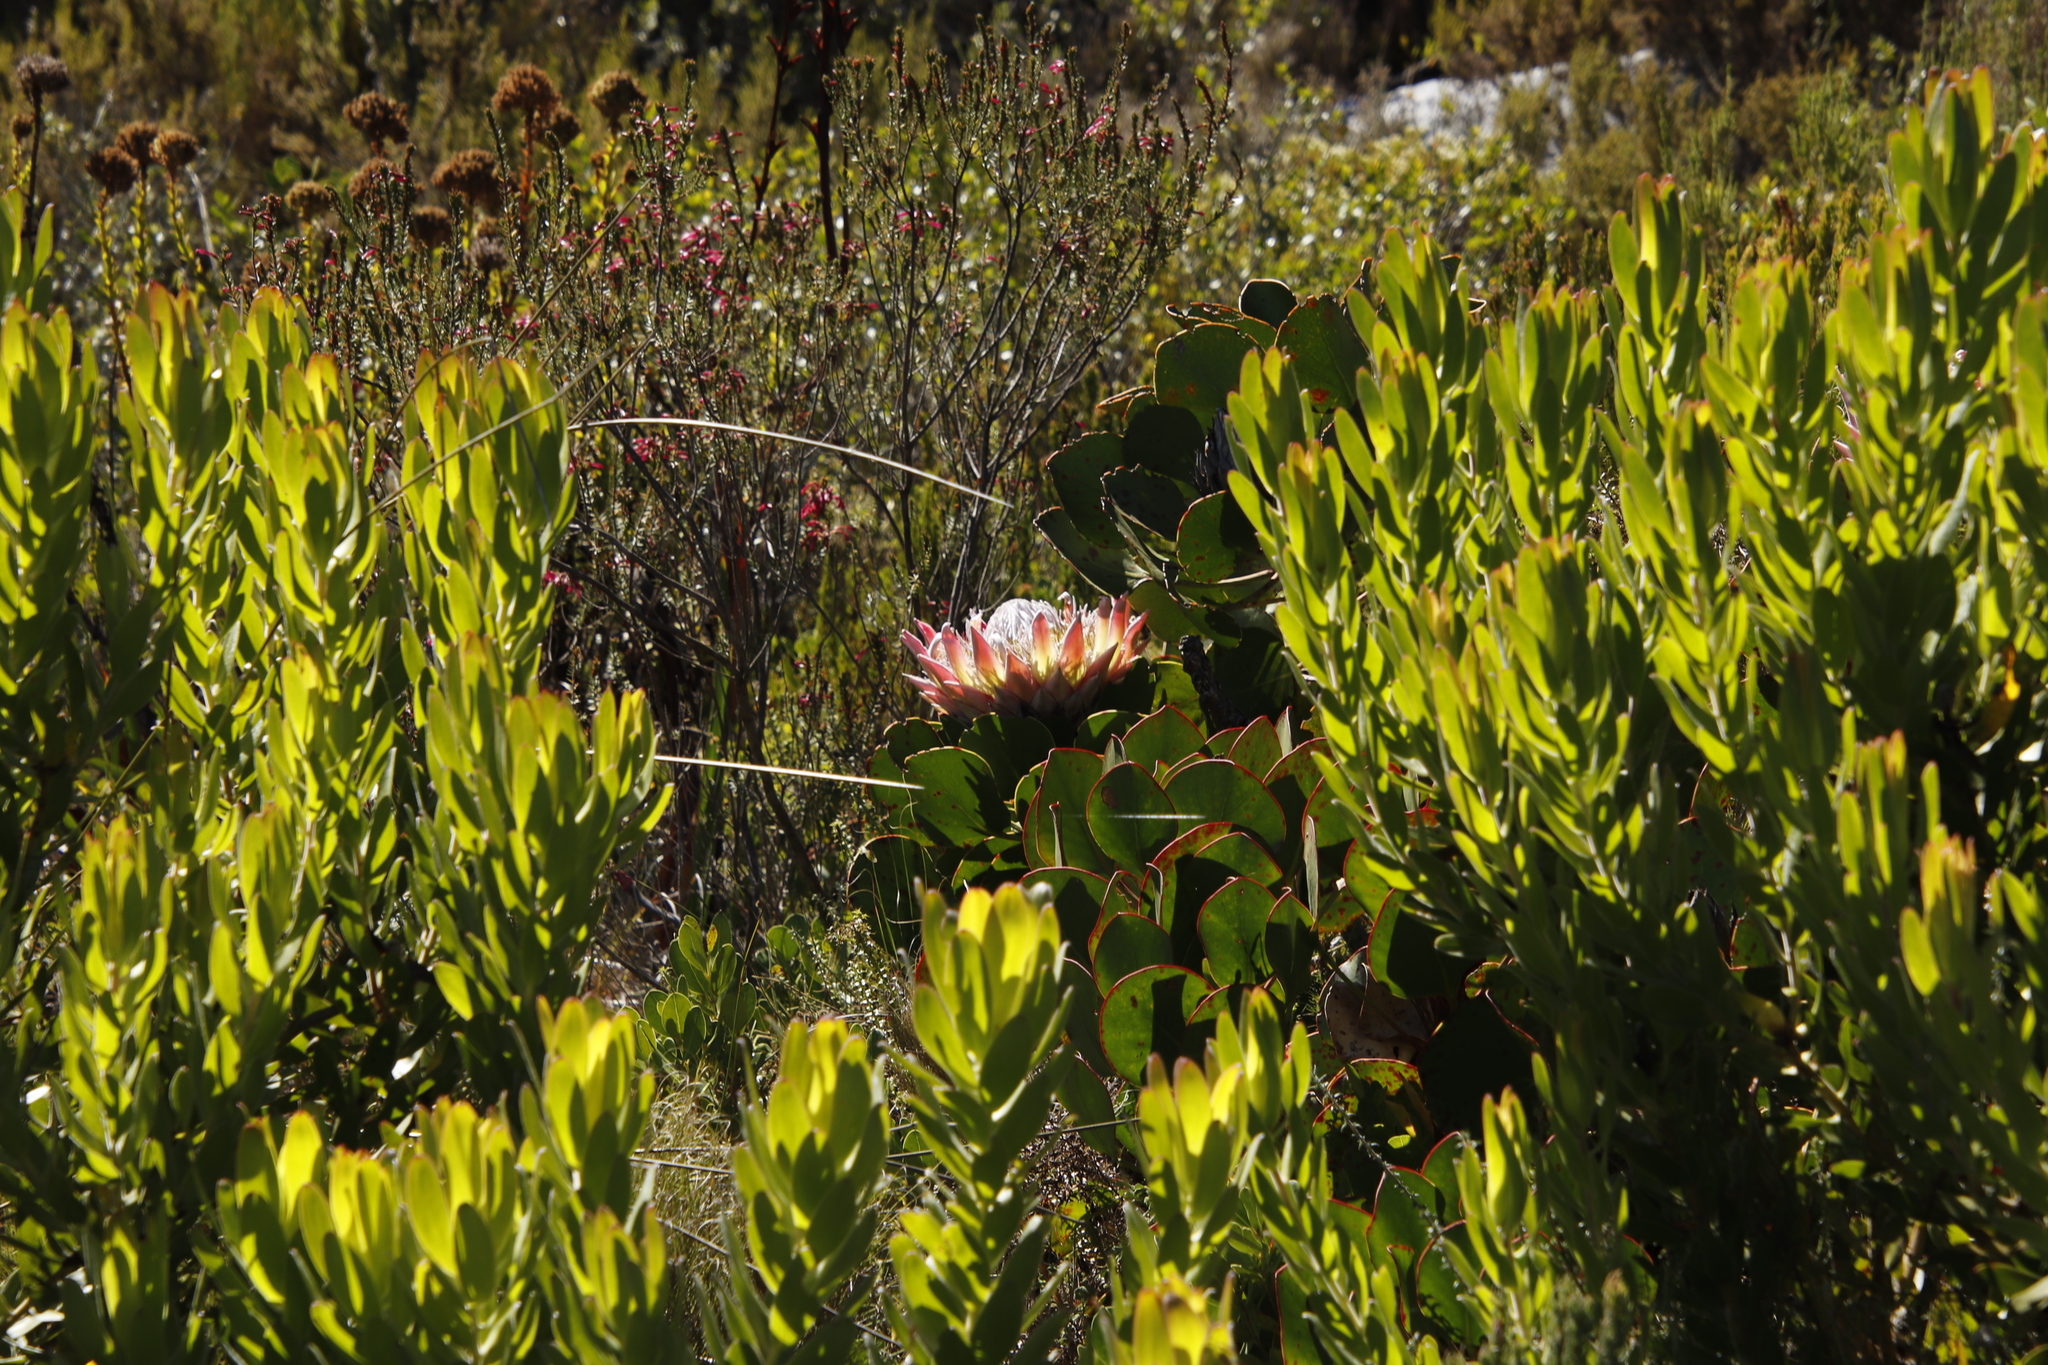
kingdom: Plantae
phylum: Tracheophyta
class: Magnoliopsida
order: Proteales
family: Proteaceae
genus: Protea
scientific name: Protea cynaroides
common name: King protea
